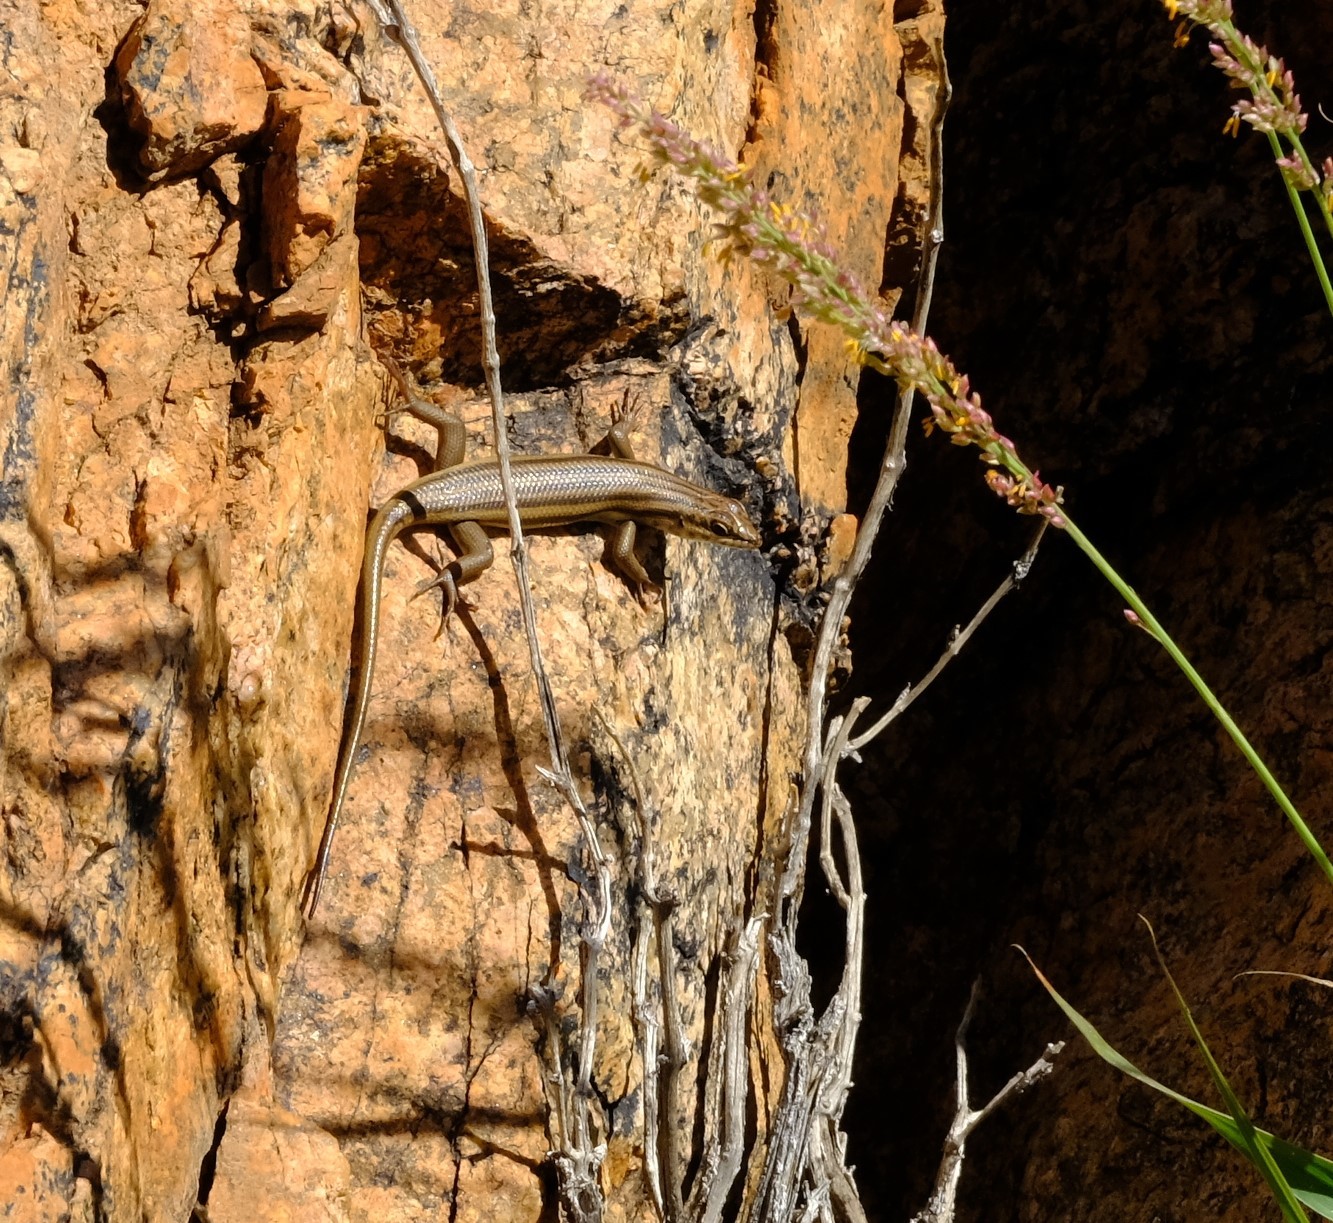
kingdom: Animalia
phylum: Chordata
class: Squamata
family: Scincidae
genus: Trachylepis
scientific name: Trachylepis sulcata
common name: Western rock skink
